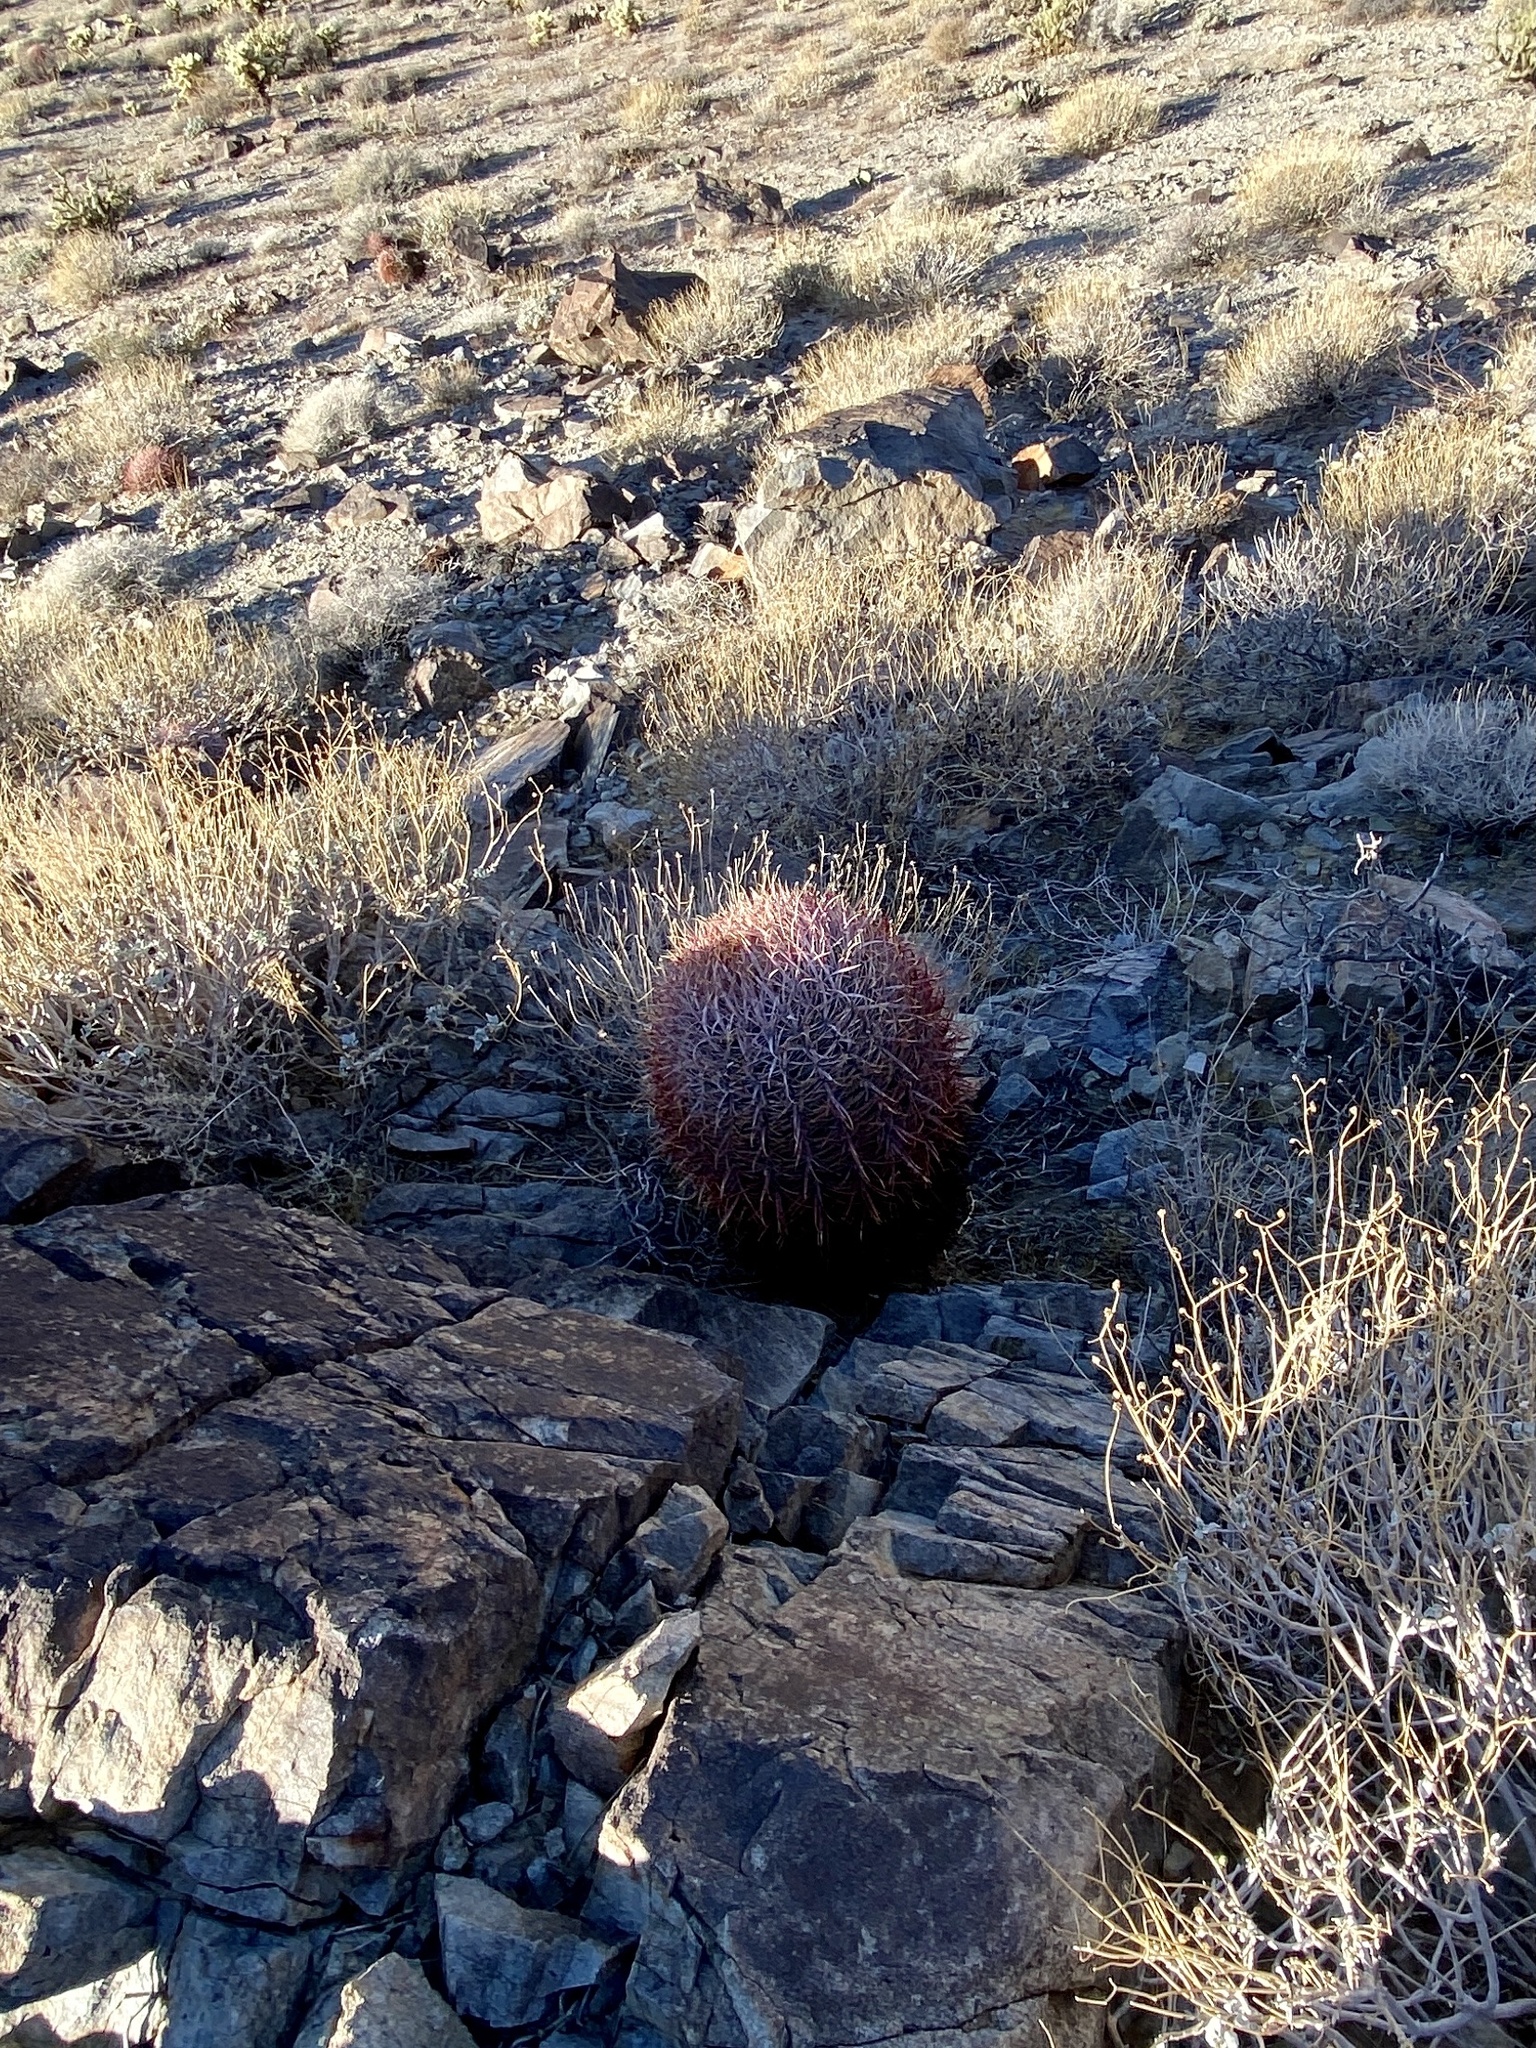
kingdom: Plantae
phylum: Tracheophyta
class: Magnoliopsida
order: Caryophyllales
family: Cactaceae
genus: Ferocactus
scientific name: Ferocactus cylindraceus
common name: California barrel cactus
